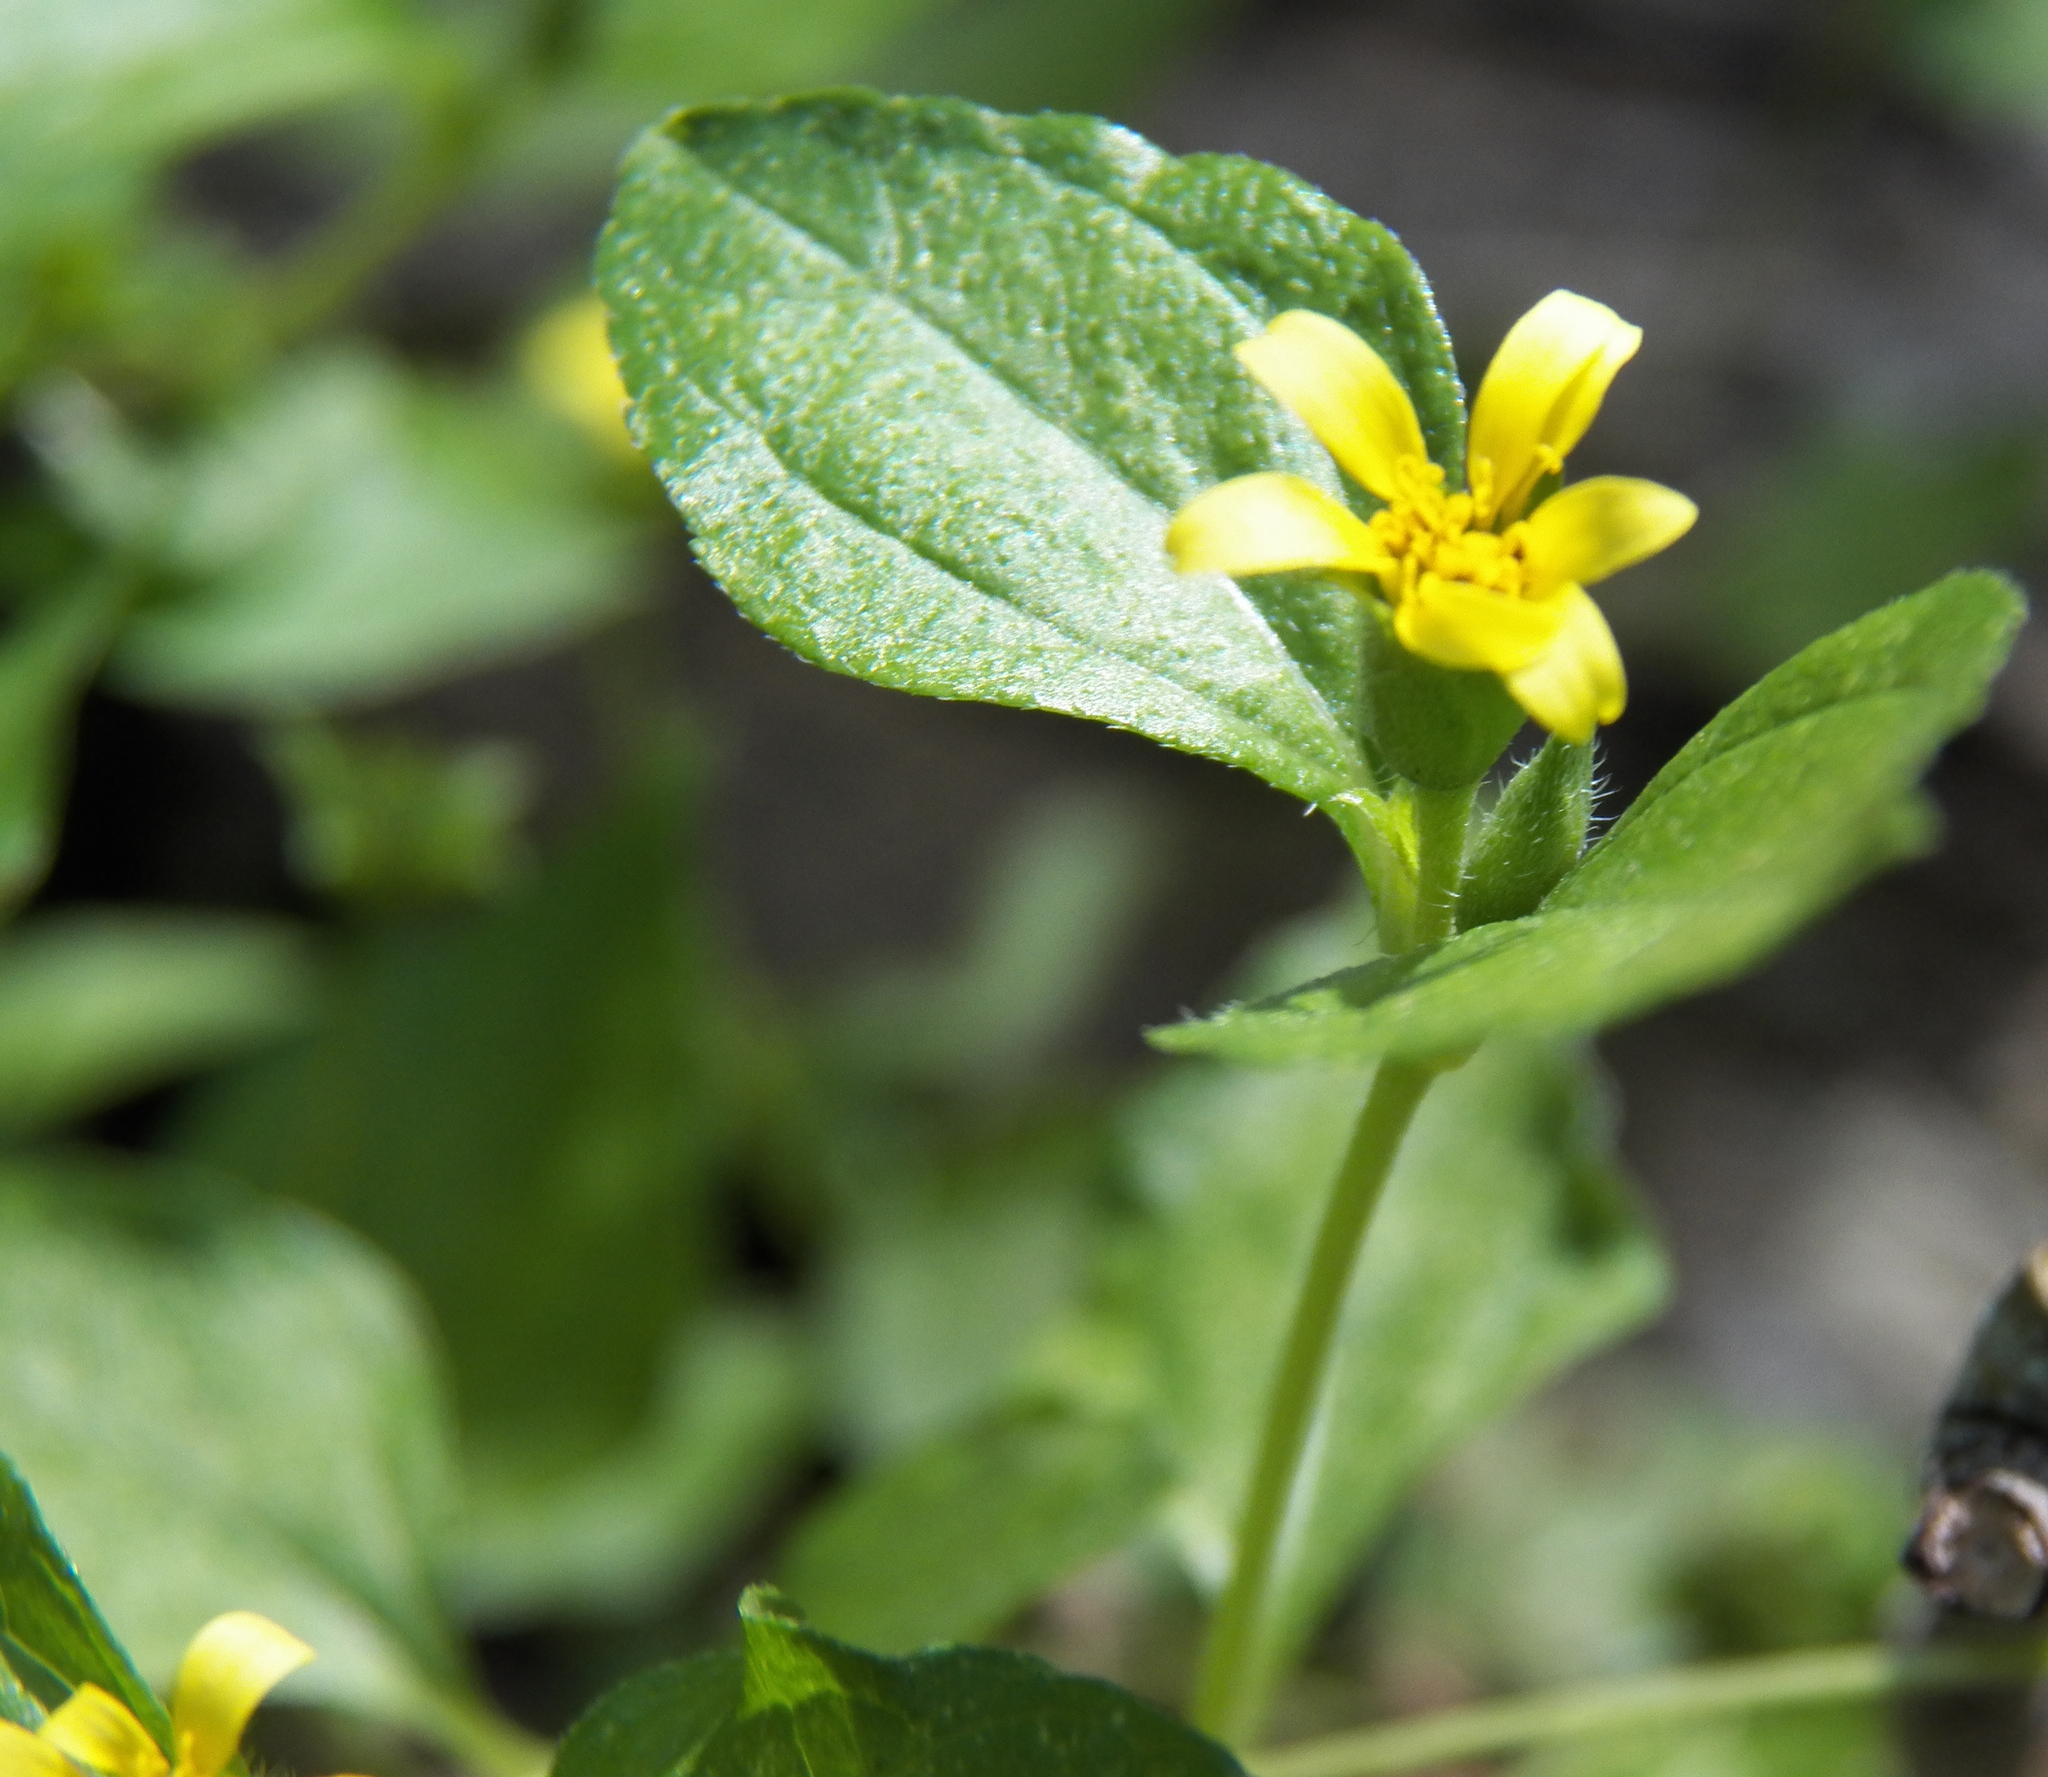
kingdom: Plantae
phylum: Tracheophyta
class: Magnoliopsida
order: Asterales
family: Asteraceae
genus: Calyptocarpus
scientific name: Calyptocarpus vialis
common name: Straggler daisy
